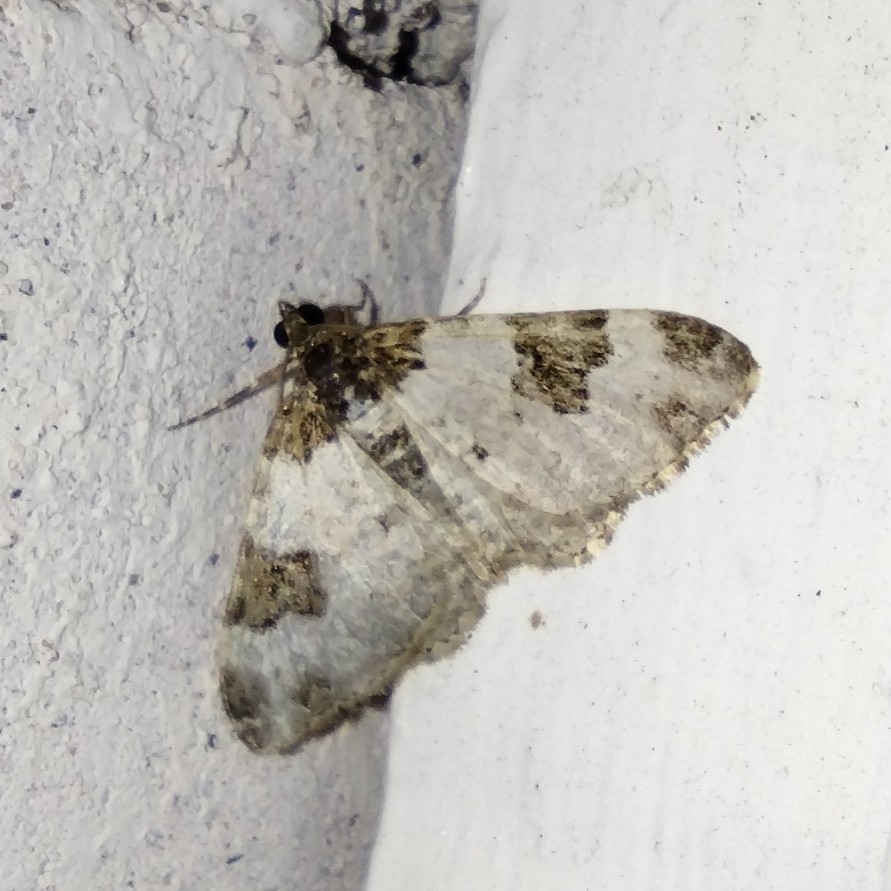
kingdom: Animalia
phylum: Arthropoda
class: Insecta
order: Lepidoptera
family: Geometridae
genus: Xanthorhoe
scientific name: Xanthorhoe fluctuata
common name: Garden carpet
